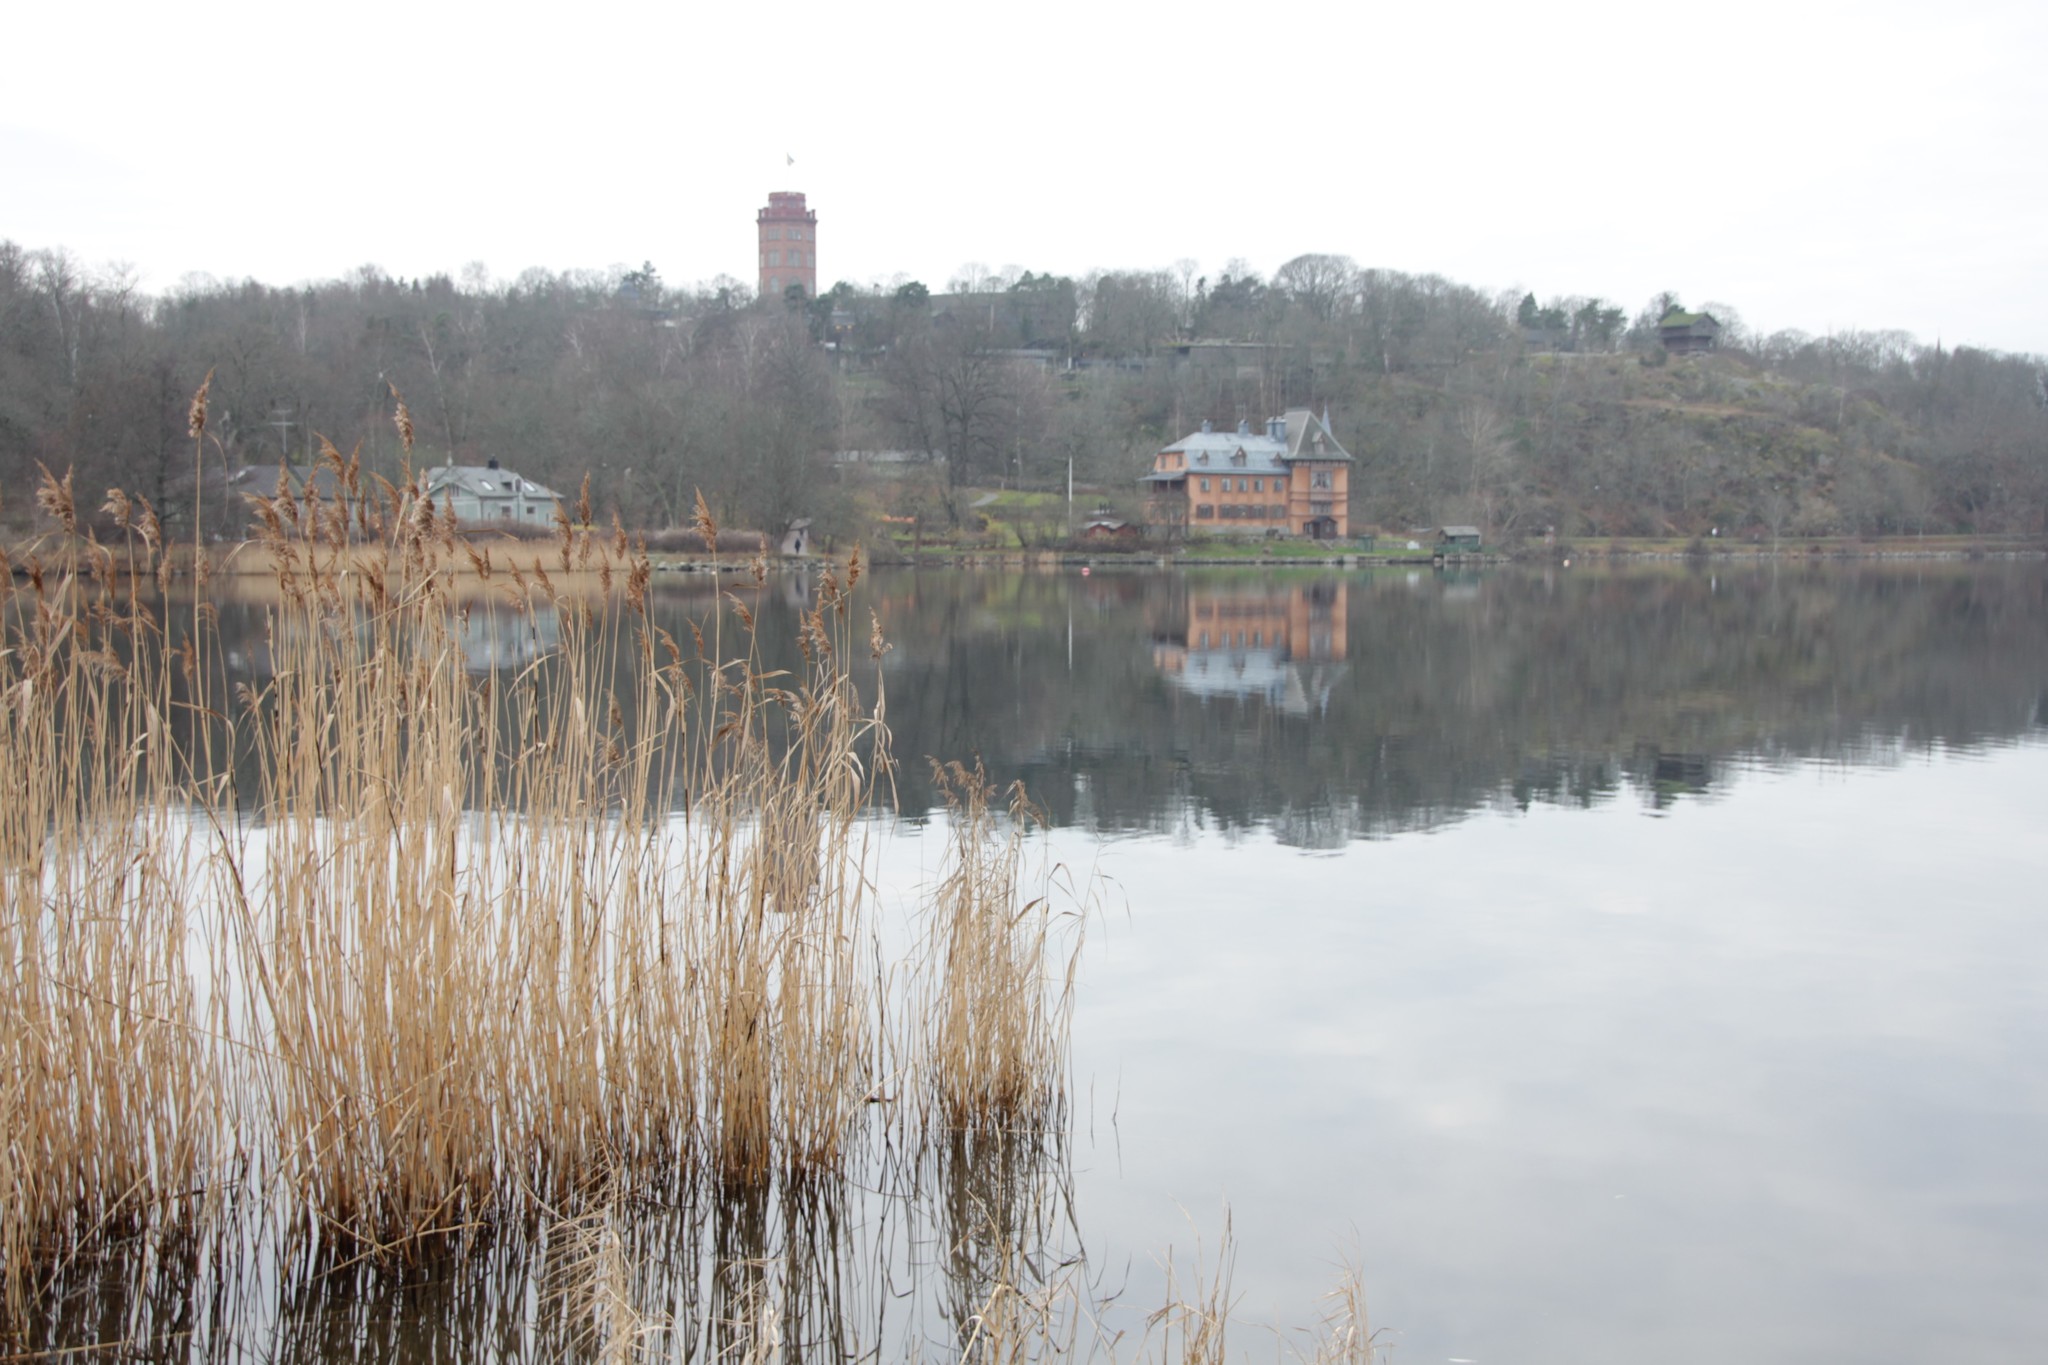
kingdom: Plantae
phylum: Tracheophyta
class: Liliopsida
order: Poales
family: Poaceae
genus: Phragmites
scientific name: Phragmites australis
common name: Common reed
